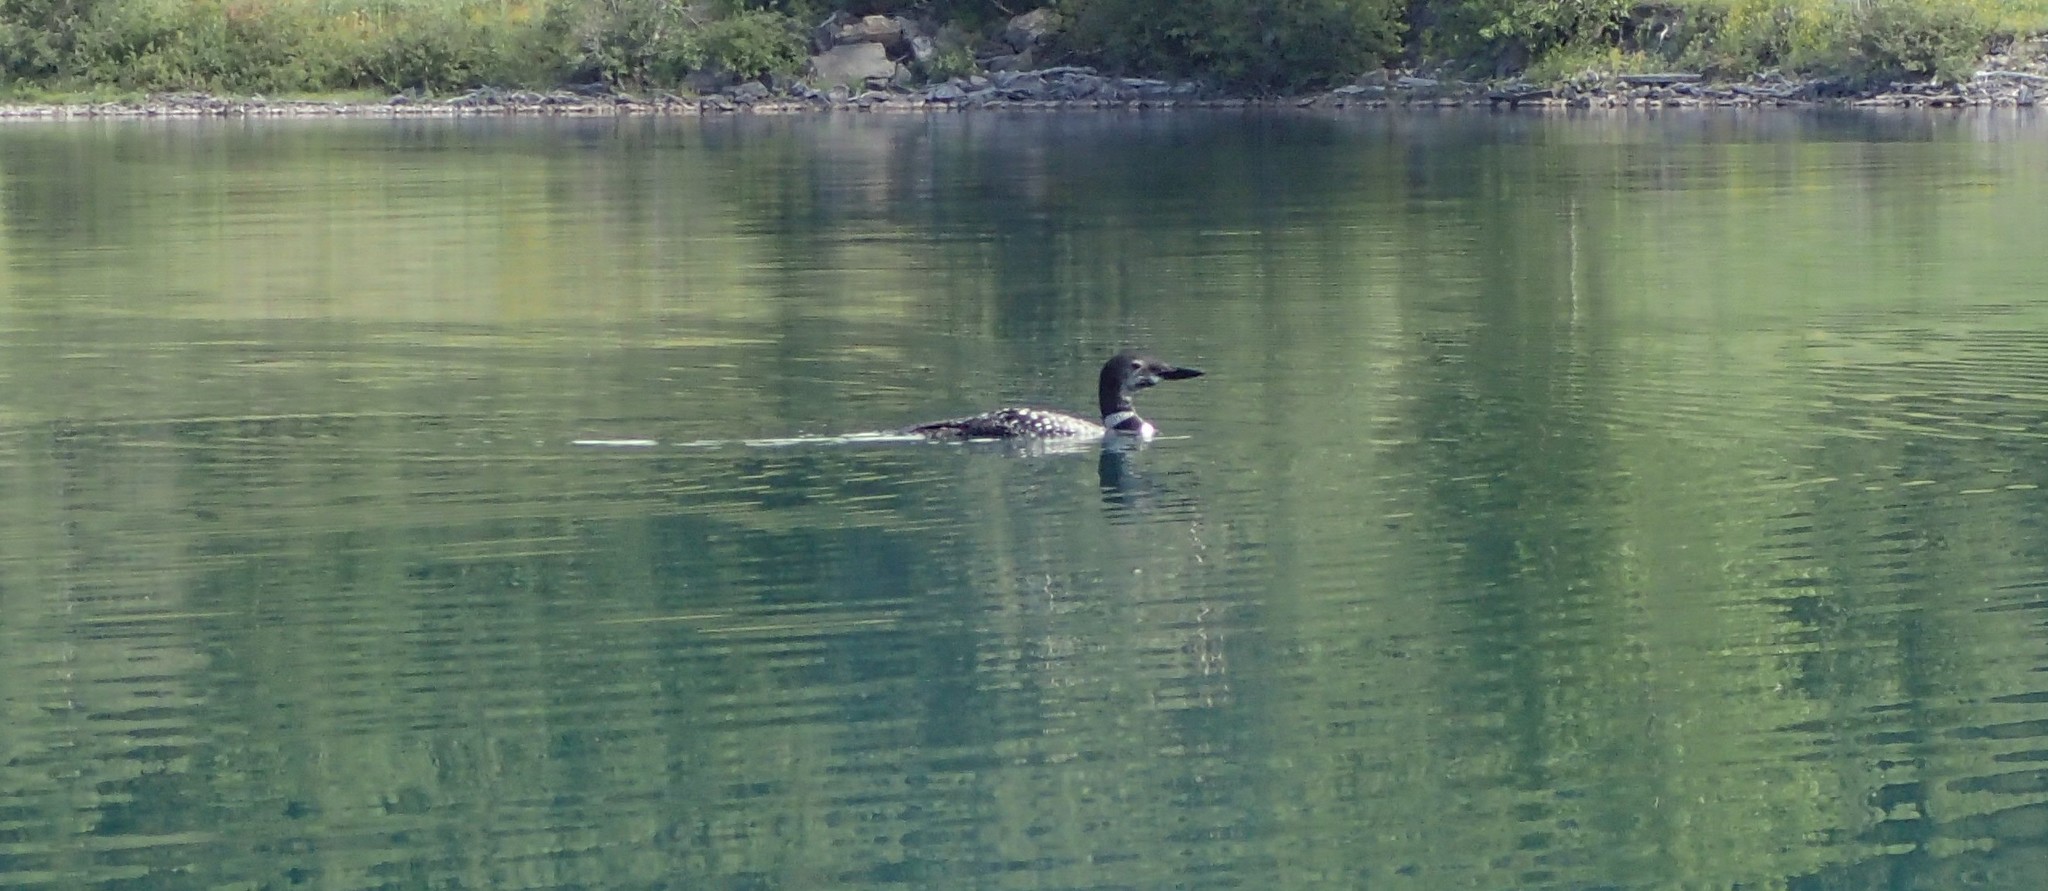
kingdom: Animalia
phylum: Chordata
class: Aves
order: Gaviiformes
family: Gaviidae
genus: Gavia
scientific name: Gavia immer
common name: Common loon
